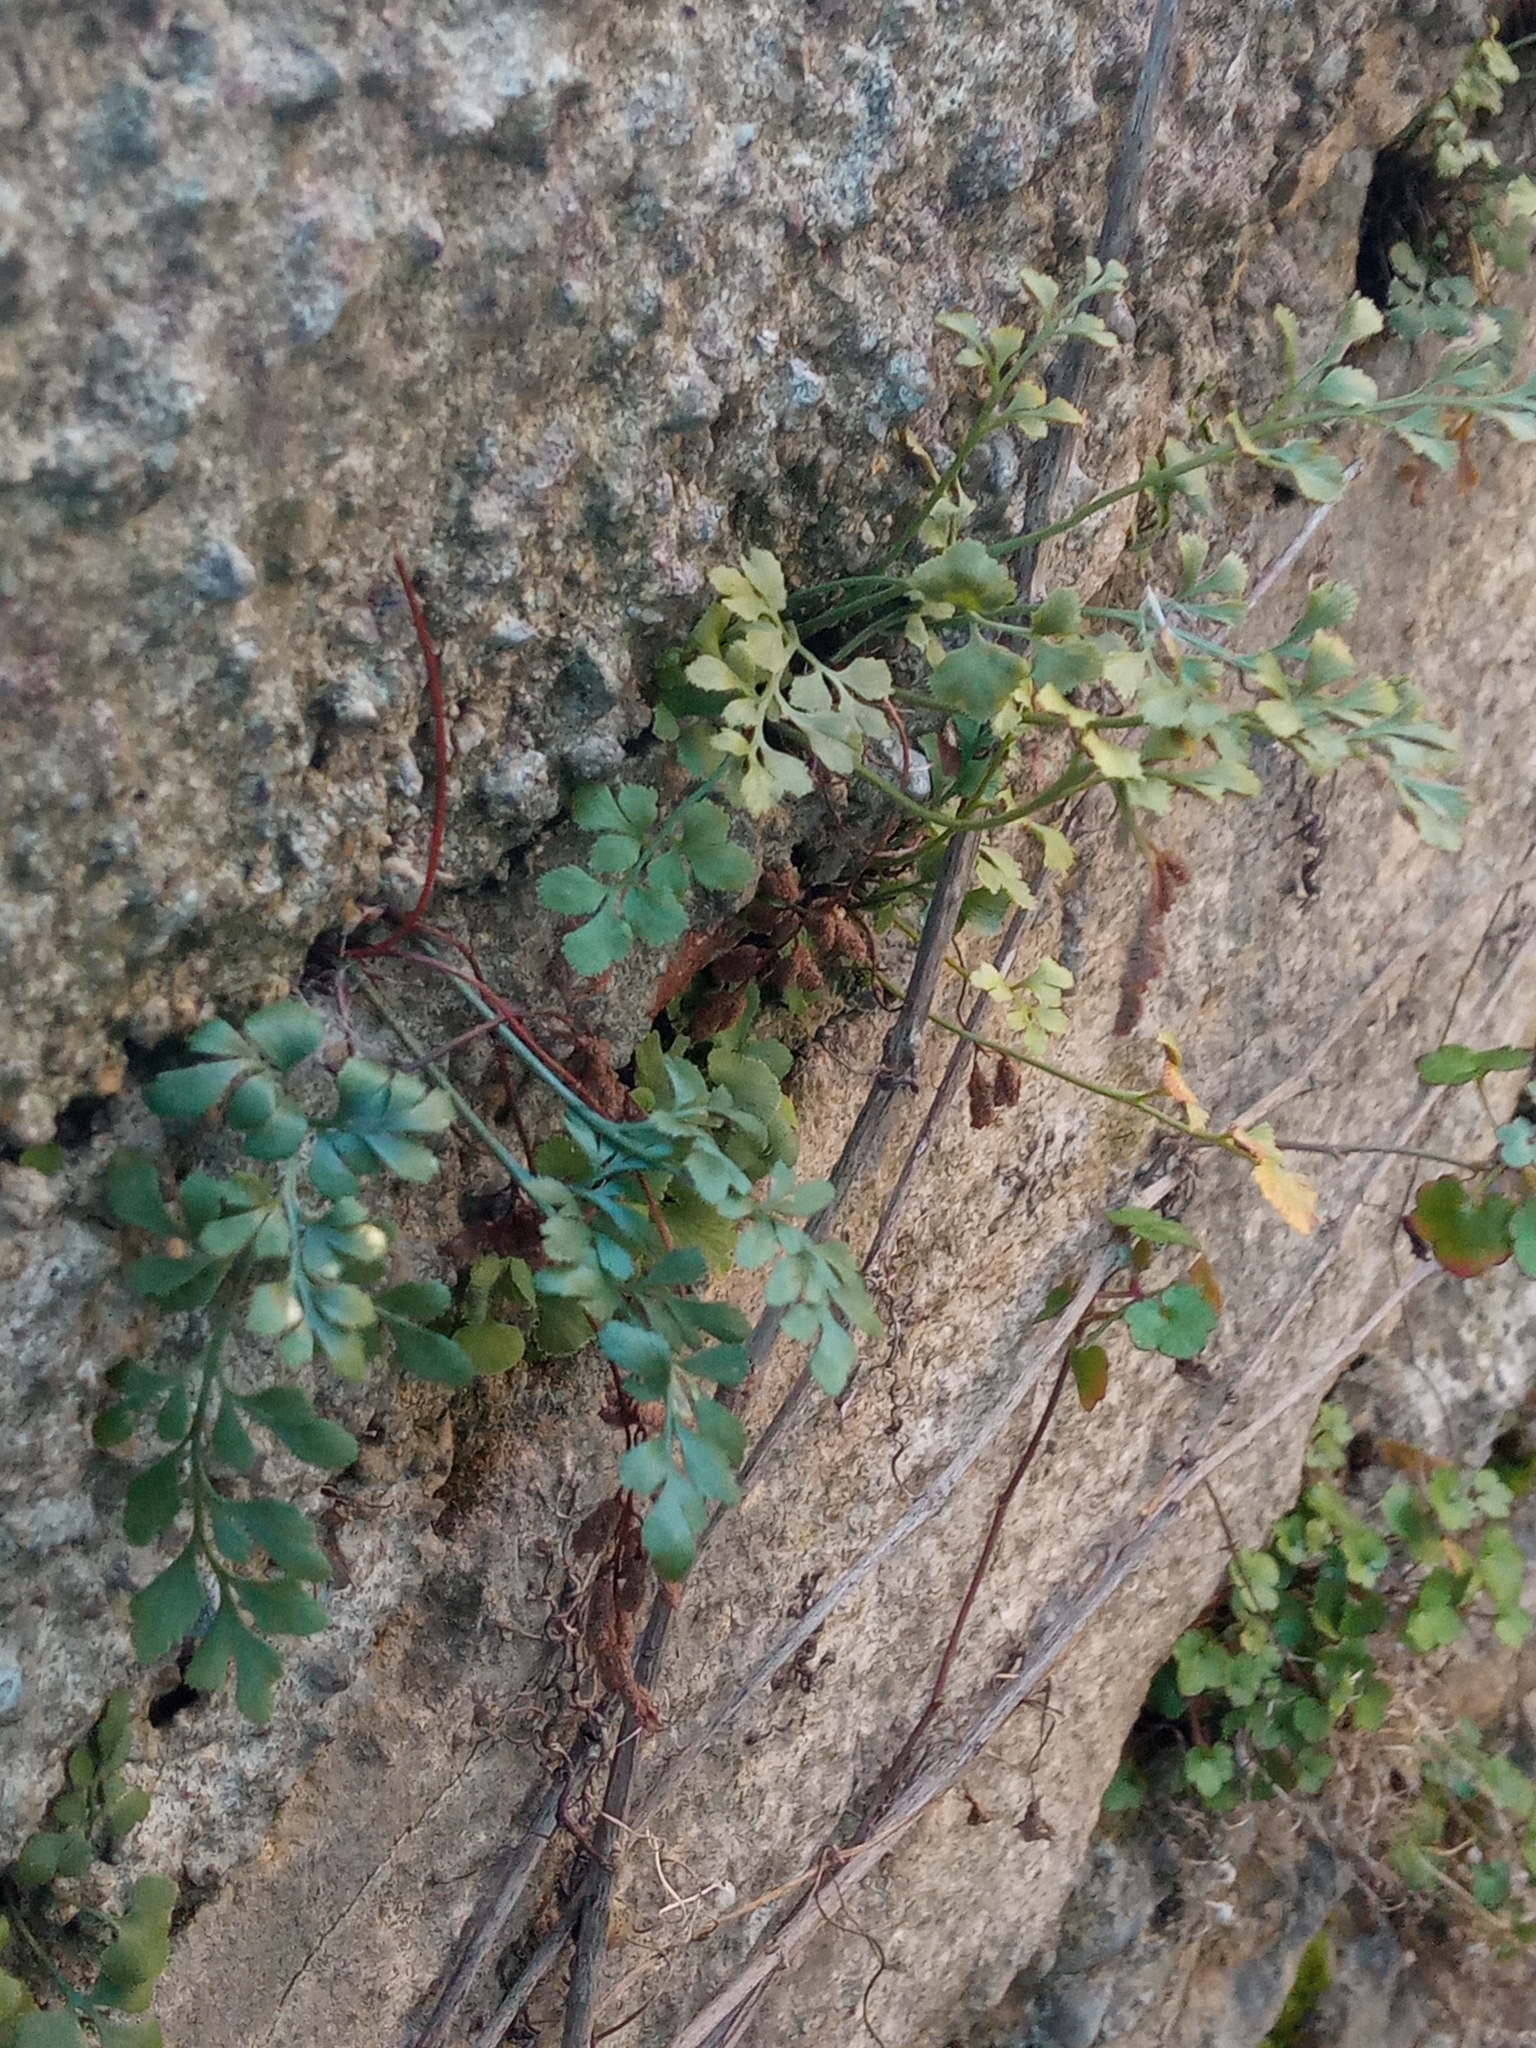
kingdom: Plantae
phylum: Tracheophyta
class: Polypodiopsida
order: Polypodiales
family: Aspleniaceae
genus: Asplenium
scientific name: Asplenium ruta-muraria
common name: Wall-rue
